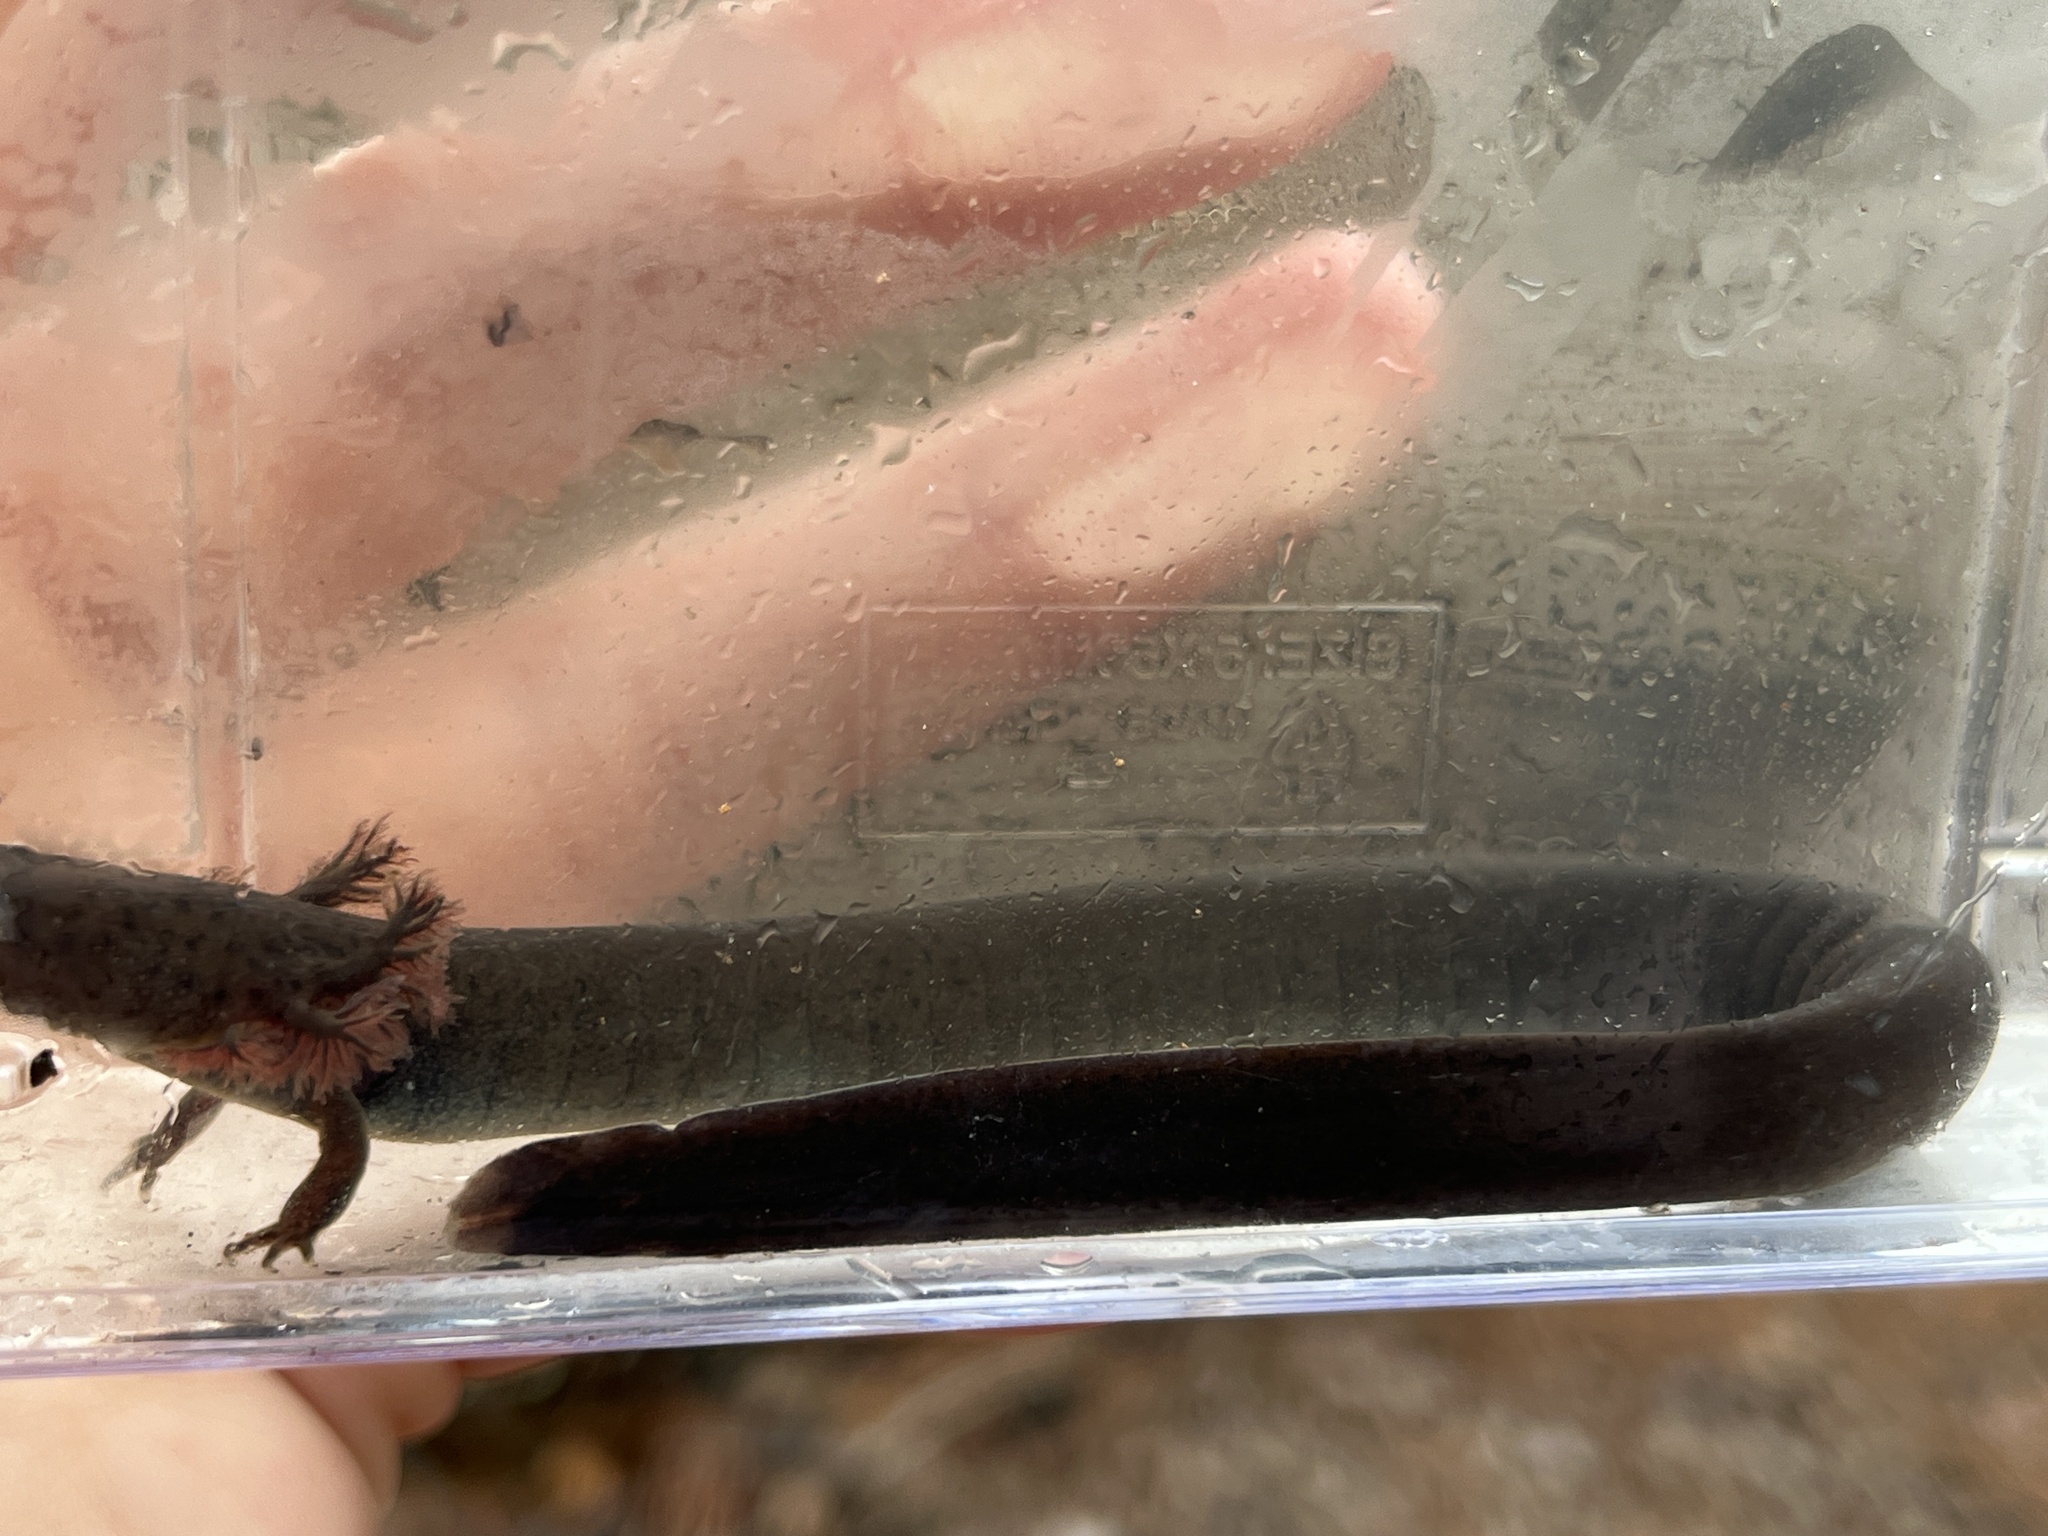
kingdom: Animalia
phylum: Chordata
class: Amphibia
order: Caudata
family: Sirenidae
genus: Siren
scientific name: Siren intermedia
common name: Lesser siren
